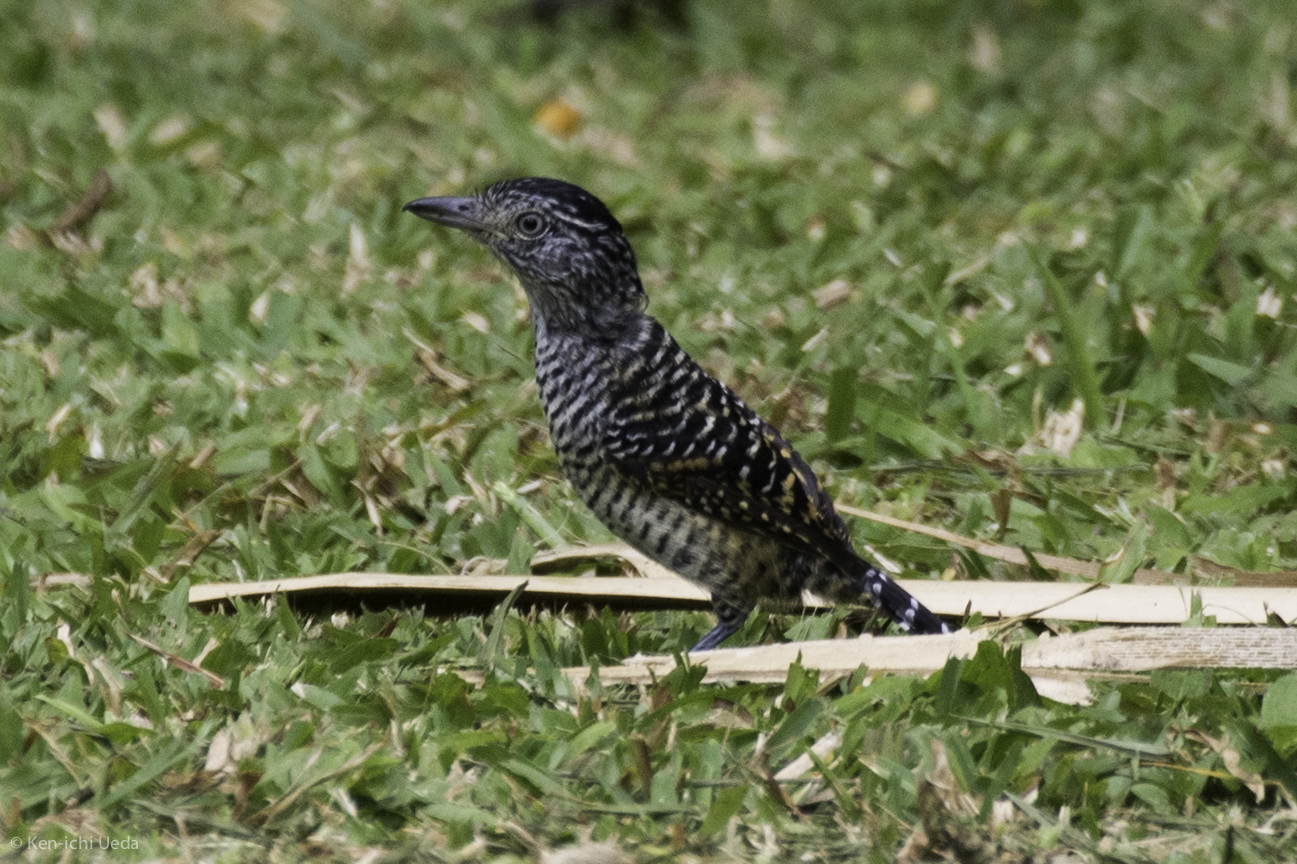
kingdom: Animalia
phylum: Chordata
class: Aves
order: Passeriformes
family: Thamnophilidae
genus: Thamnophilus
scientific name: Thamnophilus doliatus
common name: Barred antshrike
